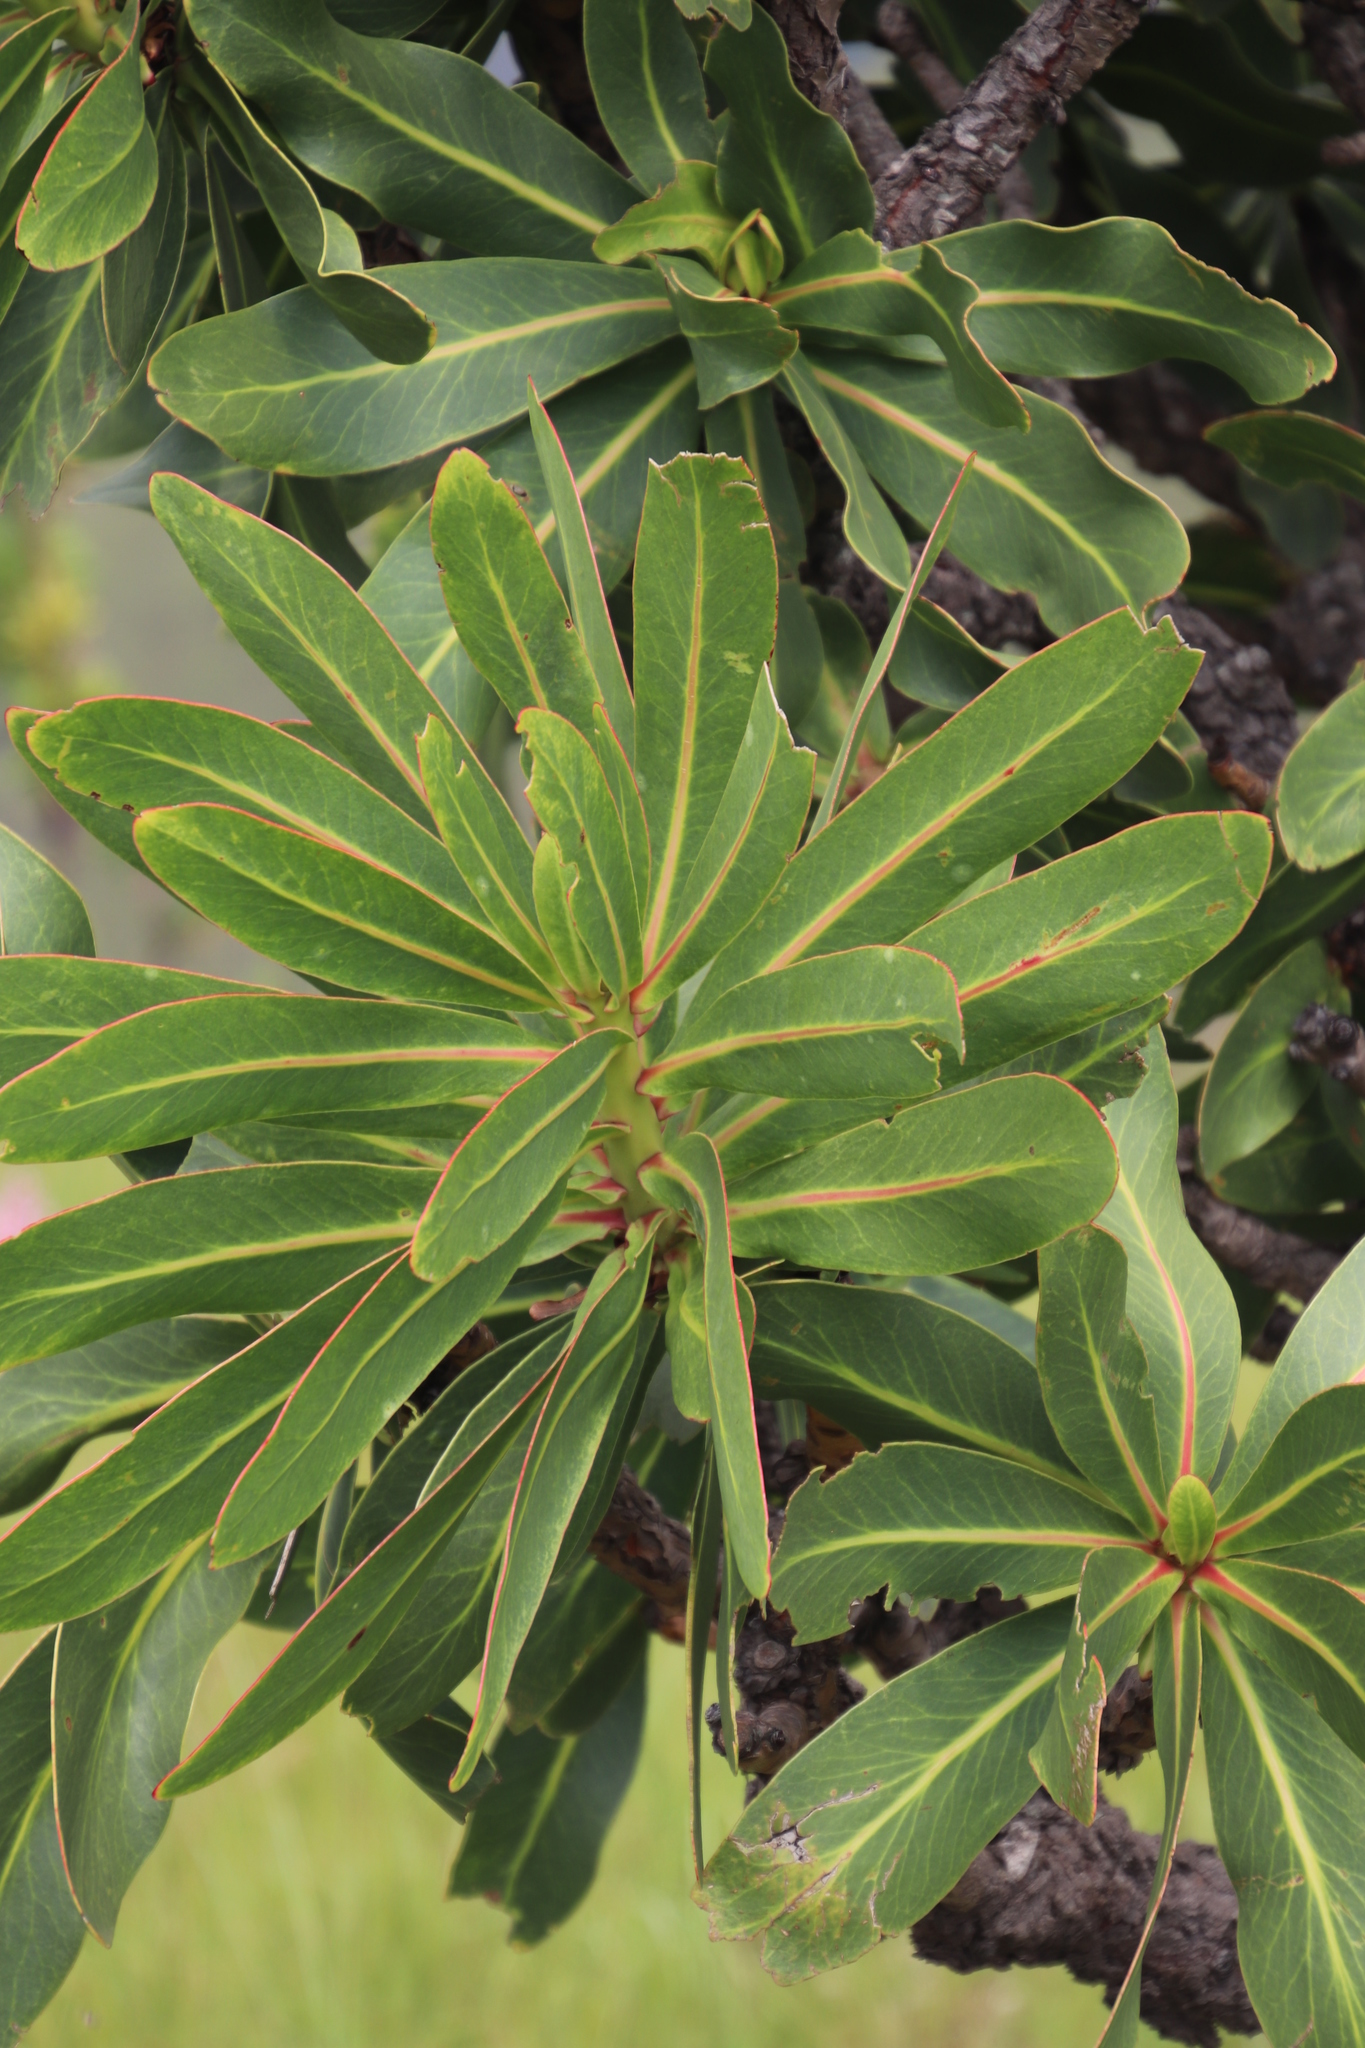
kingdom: Plantae
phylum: Tracheophyta
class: Magnoliopsida
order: Proteales
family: Proteaceae
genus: Protea
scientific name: Protea comptonii
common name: Barberton mountain sugarbush
